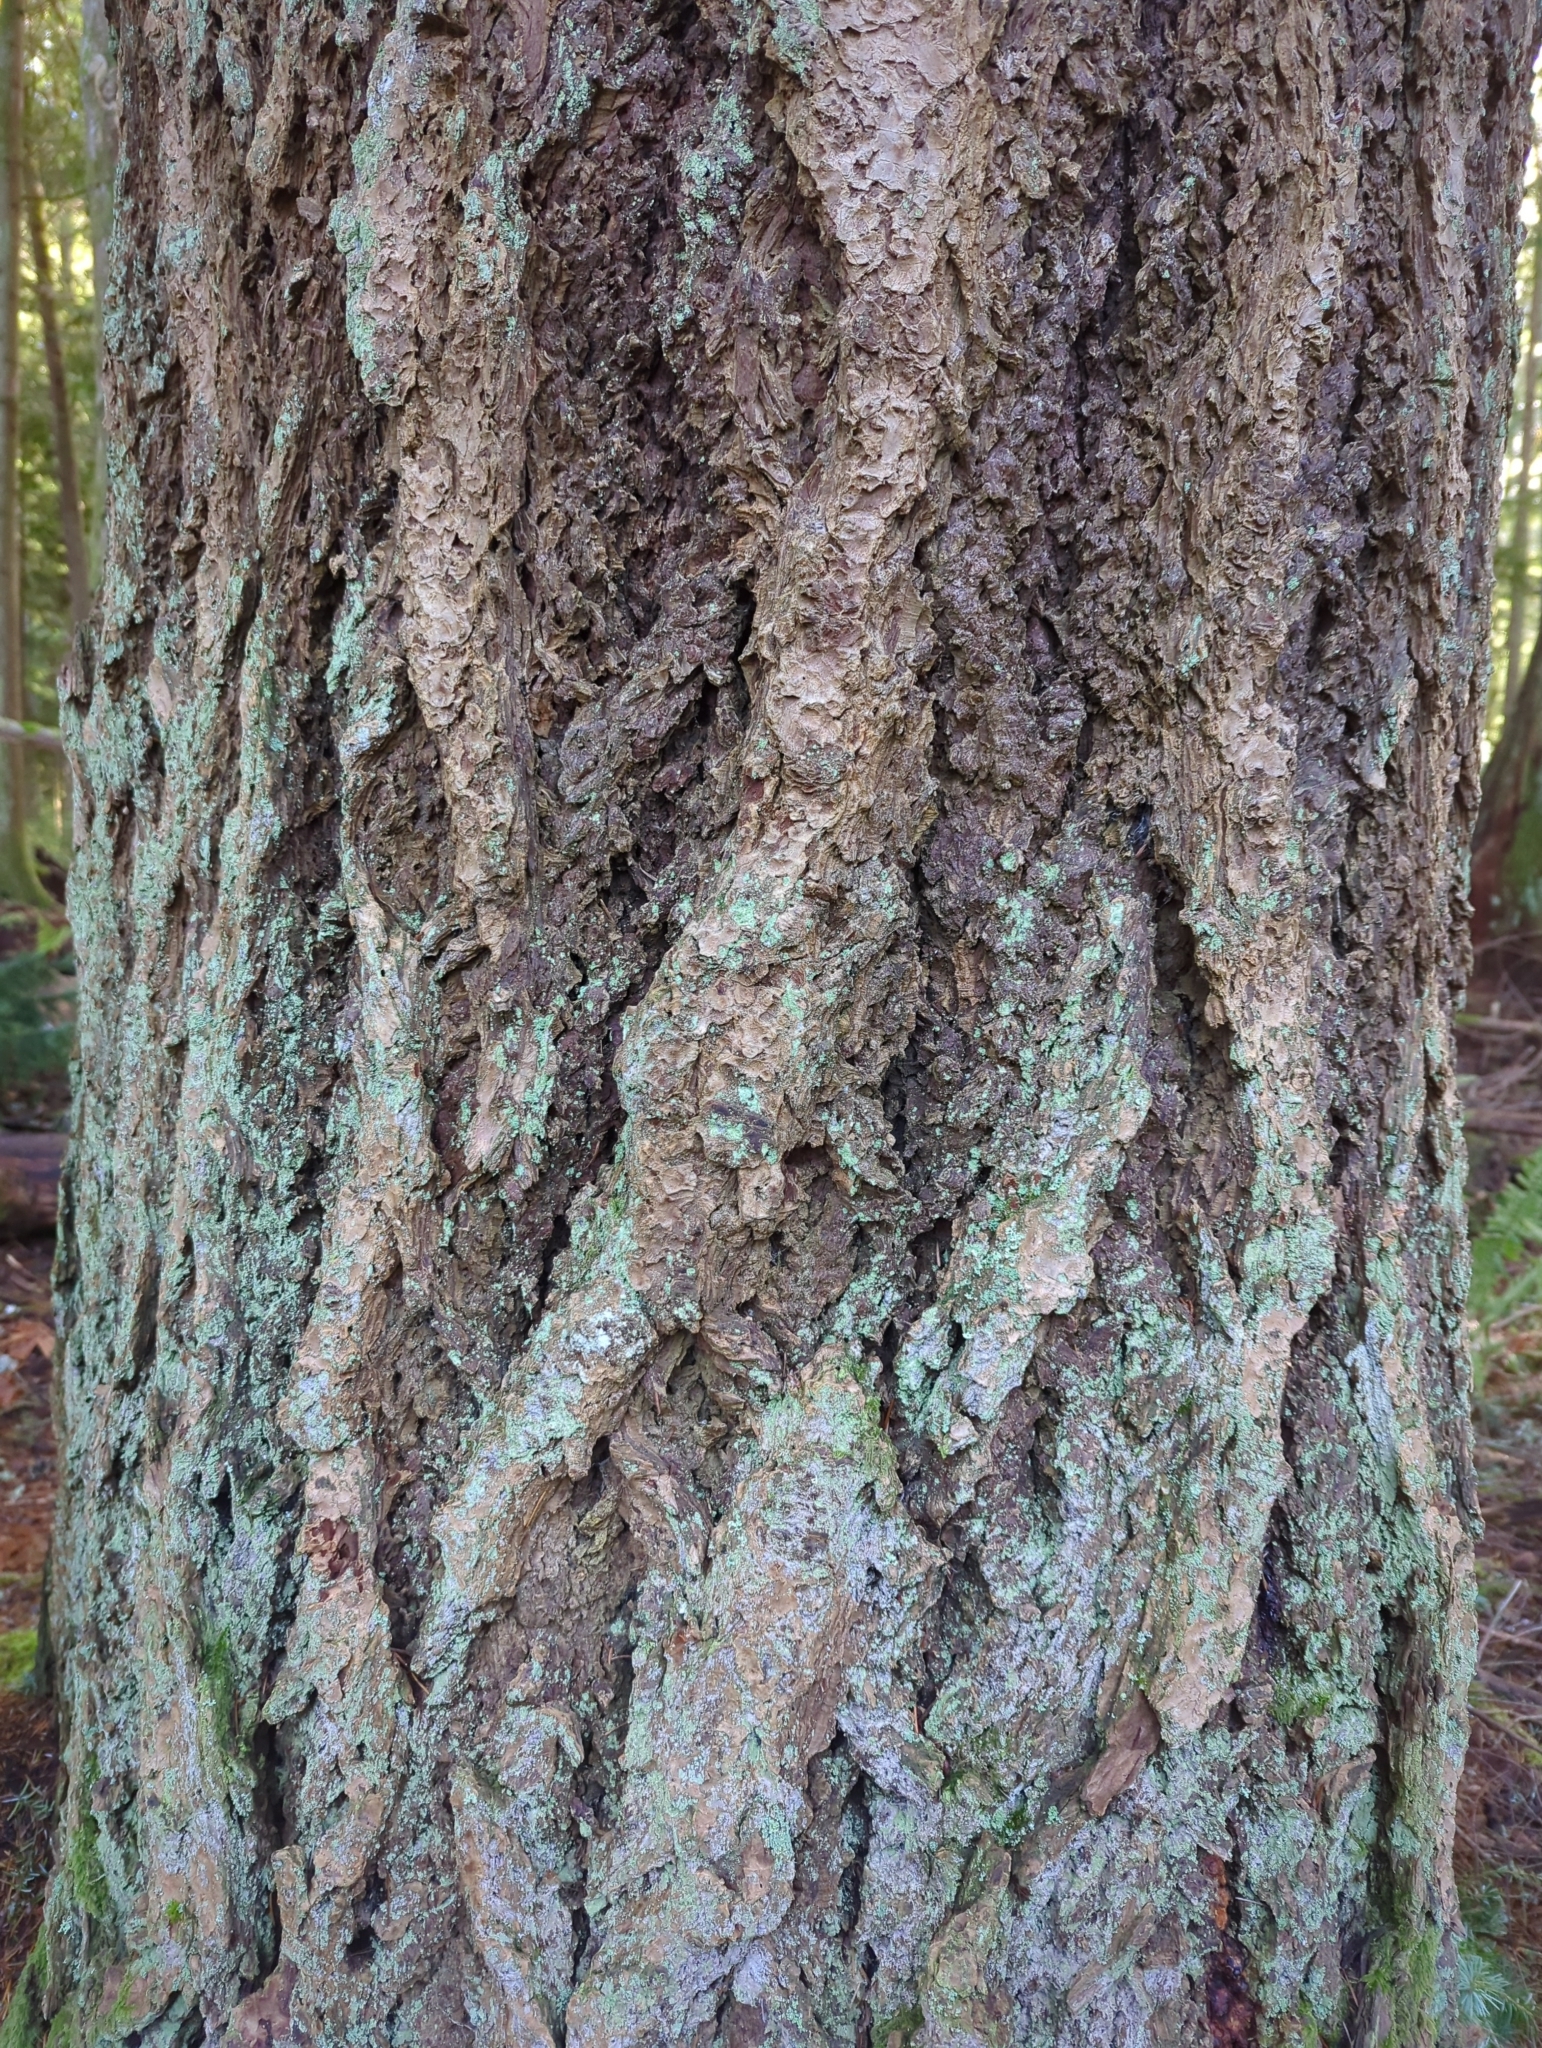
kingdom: Plantae
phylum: Tracheophyta
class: Pinopsida
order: Pinales
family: Pinaceae
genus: Pseudotsuga
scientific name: Pseudotsuga menziesii
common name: Douglas fir
